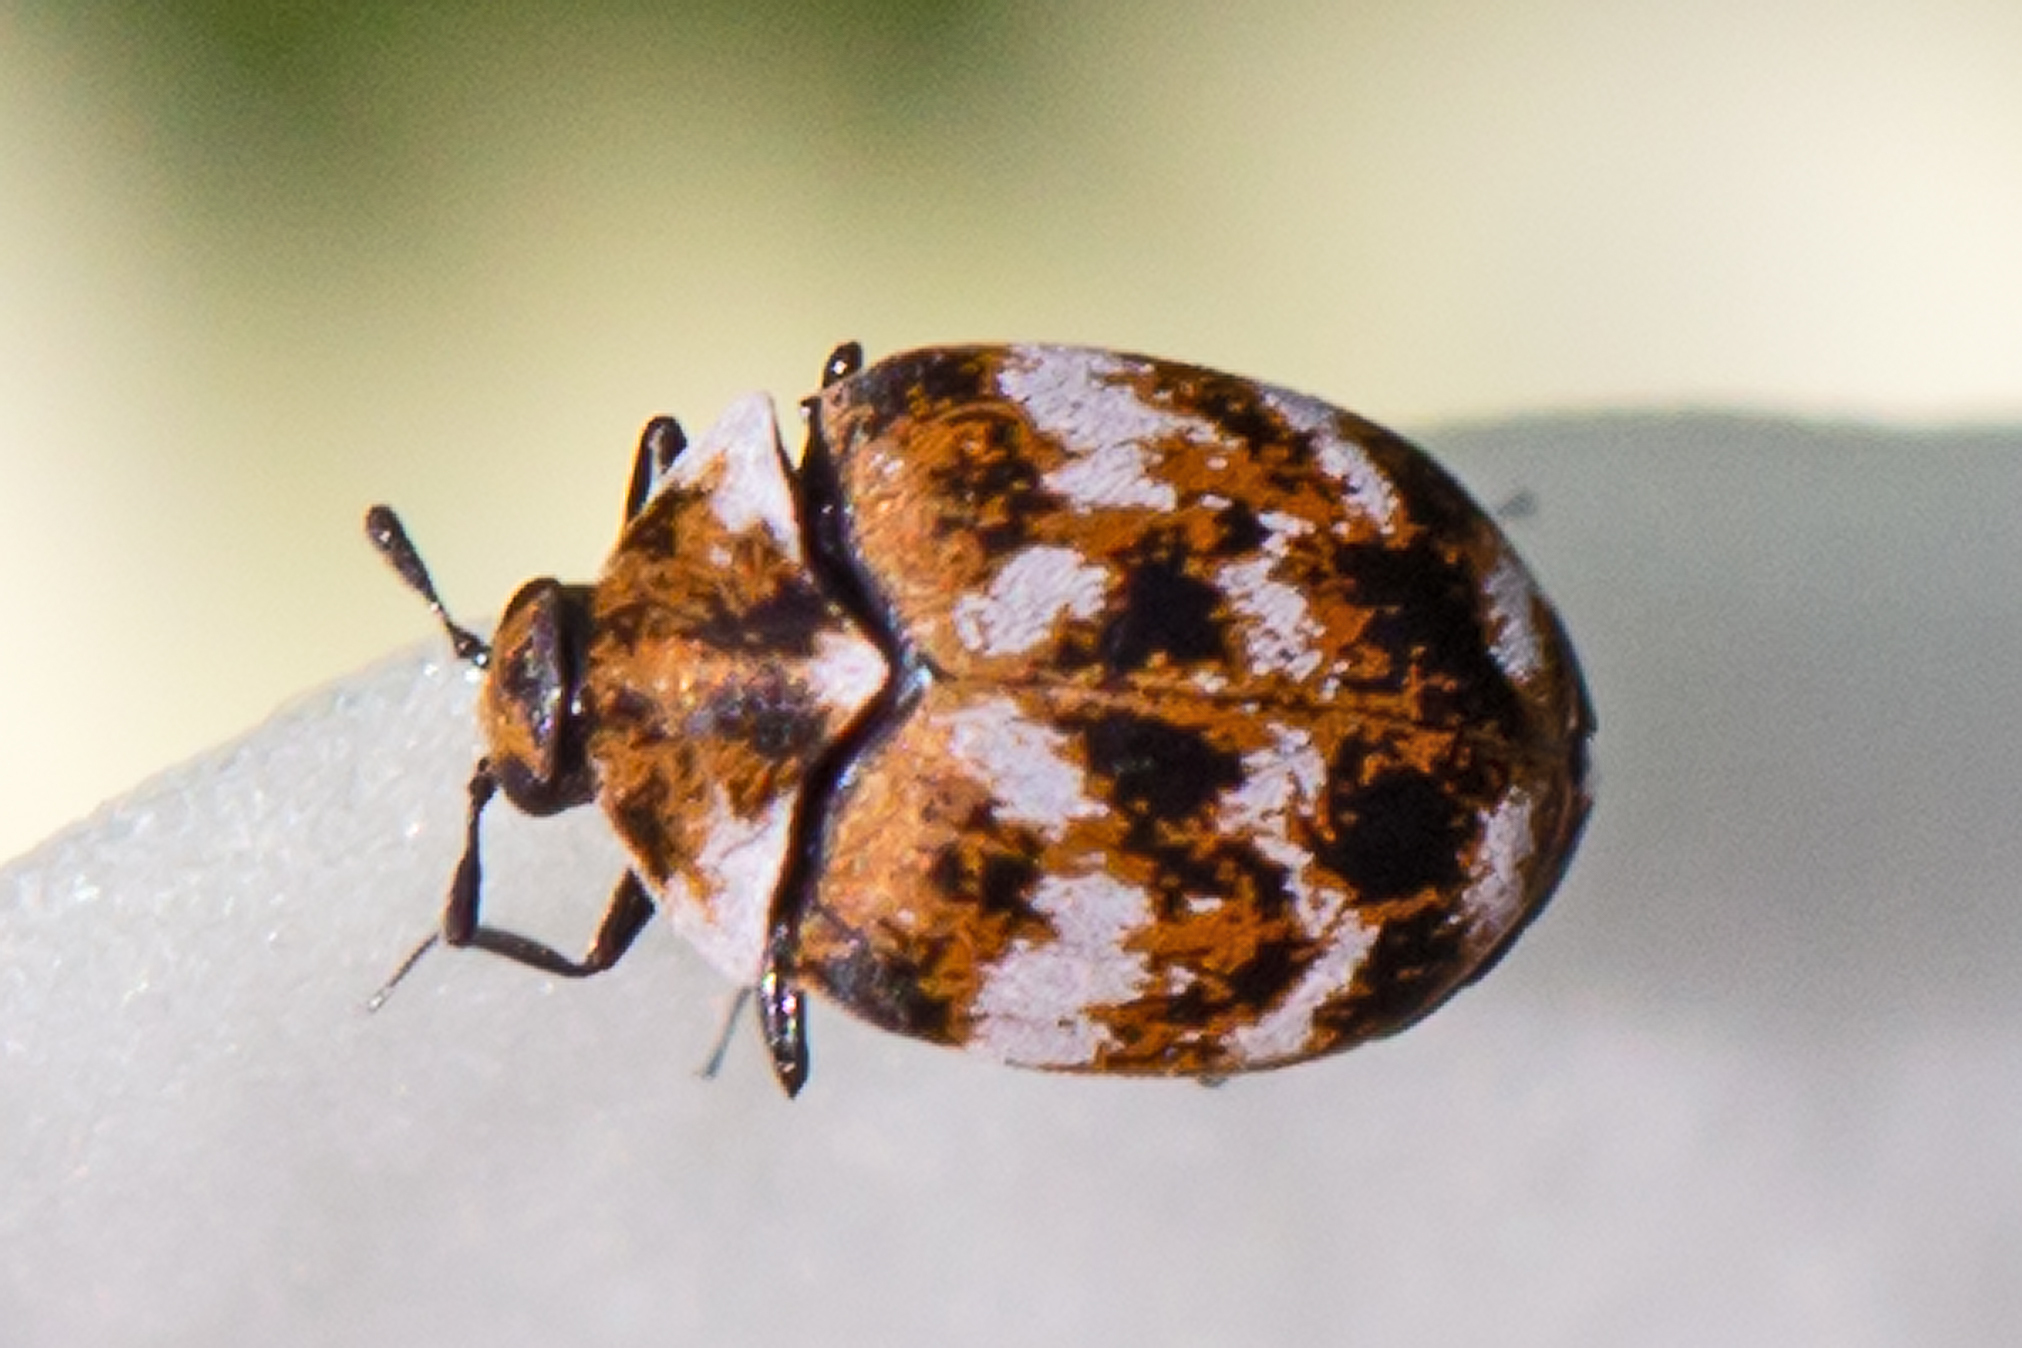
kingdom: Animalia
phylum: Arthropoda
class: Insecta
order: Coleoptera
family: Dermestidae
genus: Anthrenus
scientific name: Anthrenus verbasci
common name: Varied carpet beetle
